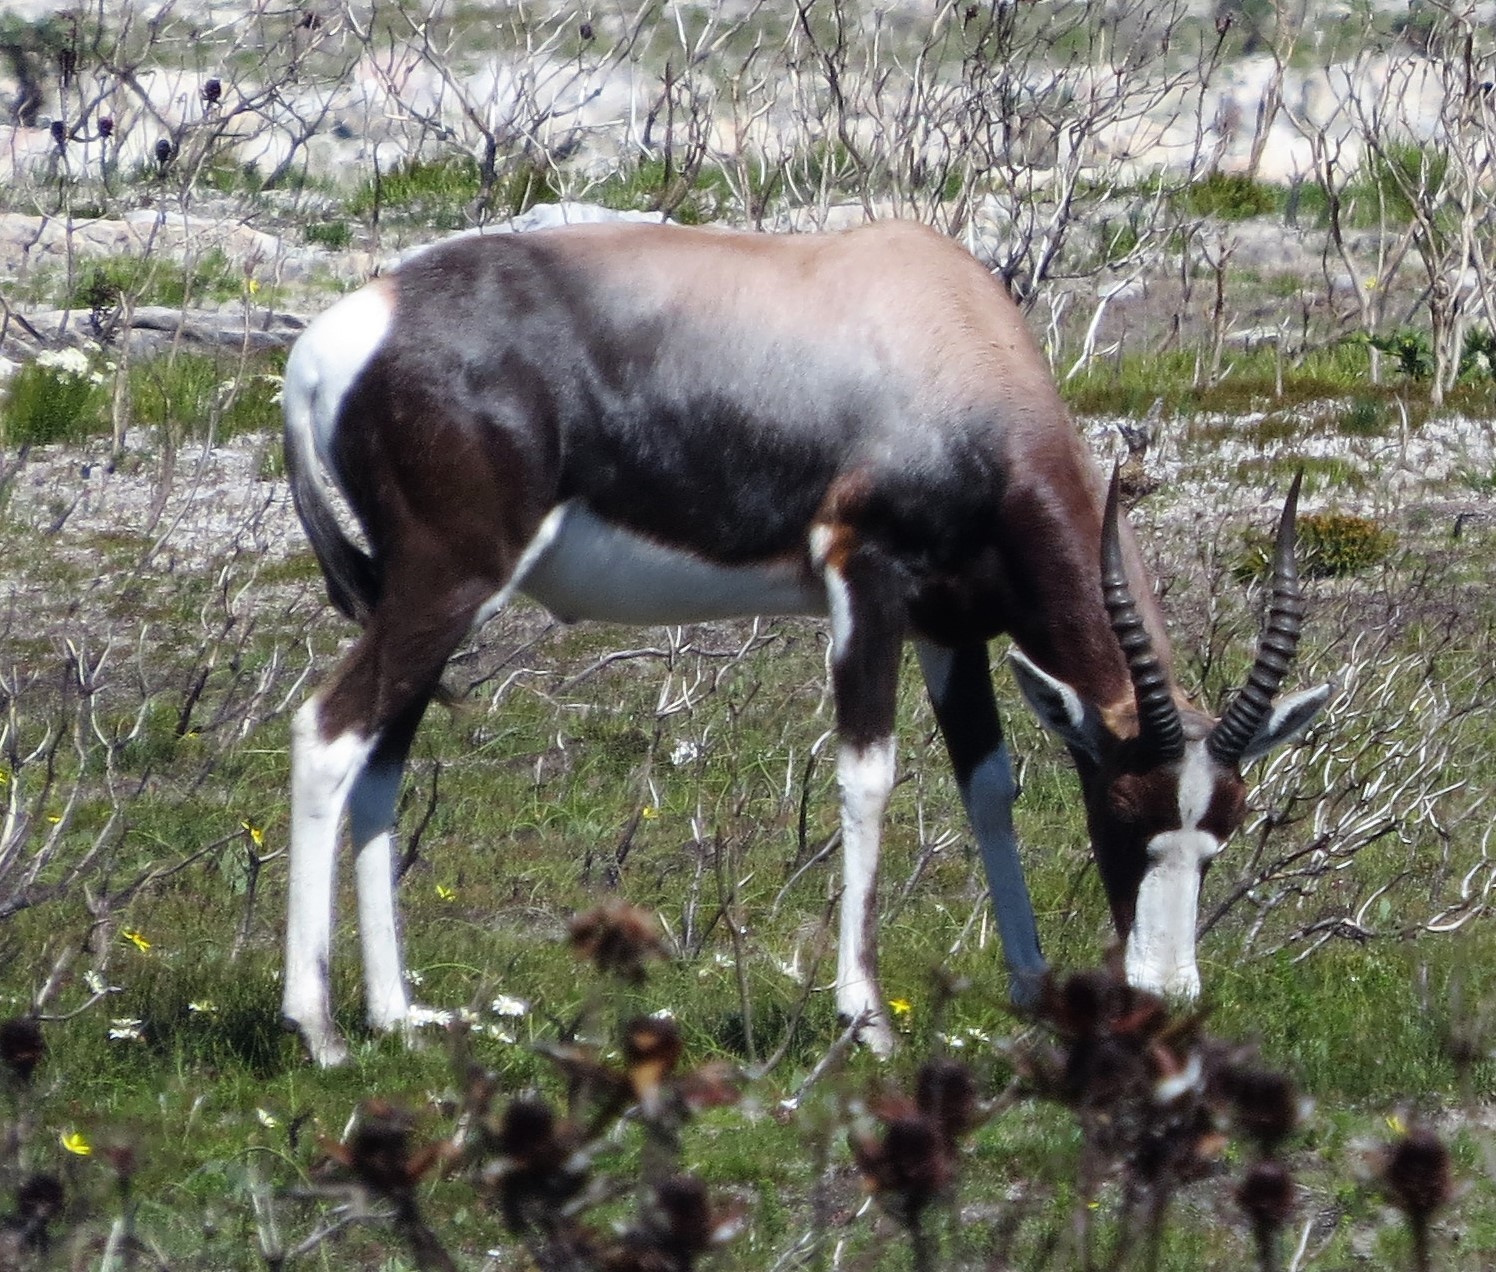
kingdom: Animalia
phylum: Chordata
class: Mammalia
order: Artiodactyla
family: Bovidae
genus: Damaliscus
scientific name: Damaliscus pygargus
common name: Bontebok
